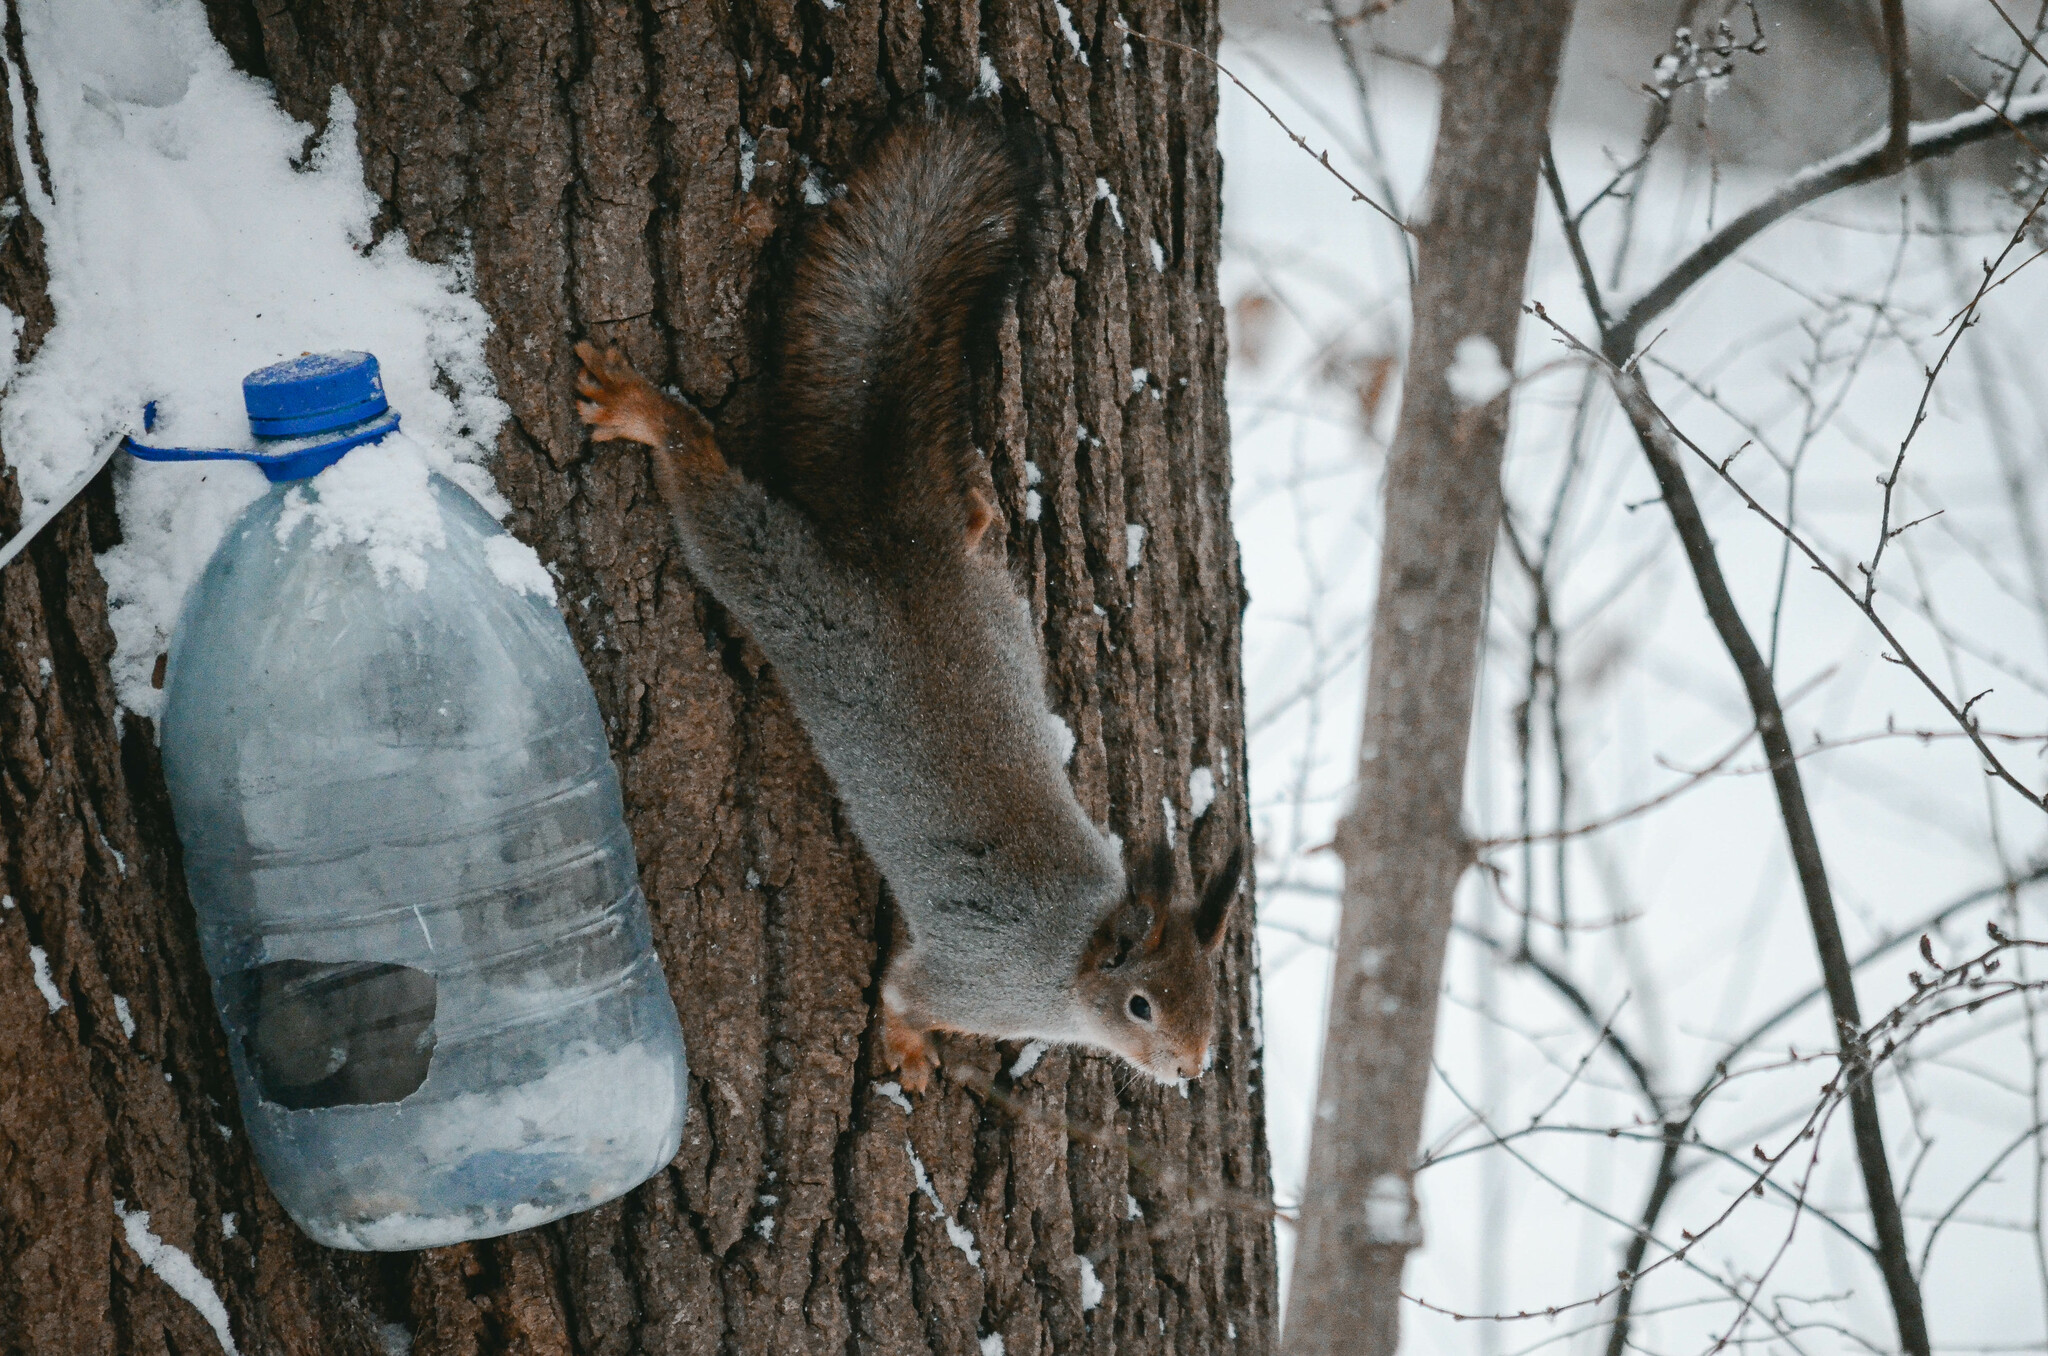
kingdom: Animalia
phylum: Chordata
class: Mammalia
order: Rodentia
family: Sciuridae
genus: Sciurus
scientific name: Sciurus vulgaris
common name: Eurasian red squirrel
